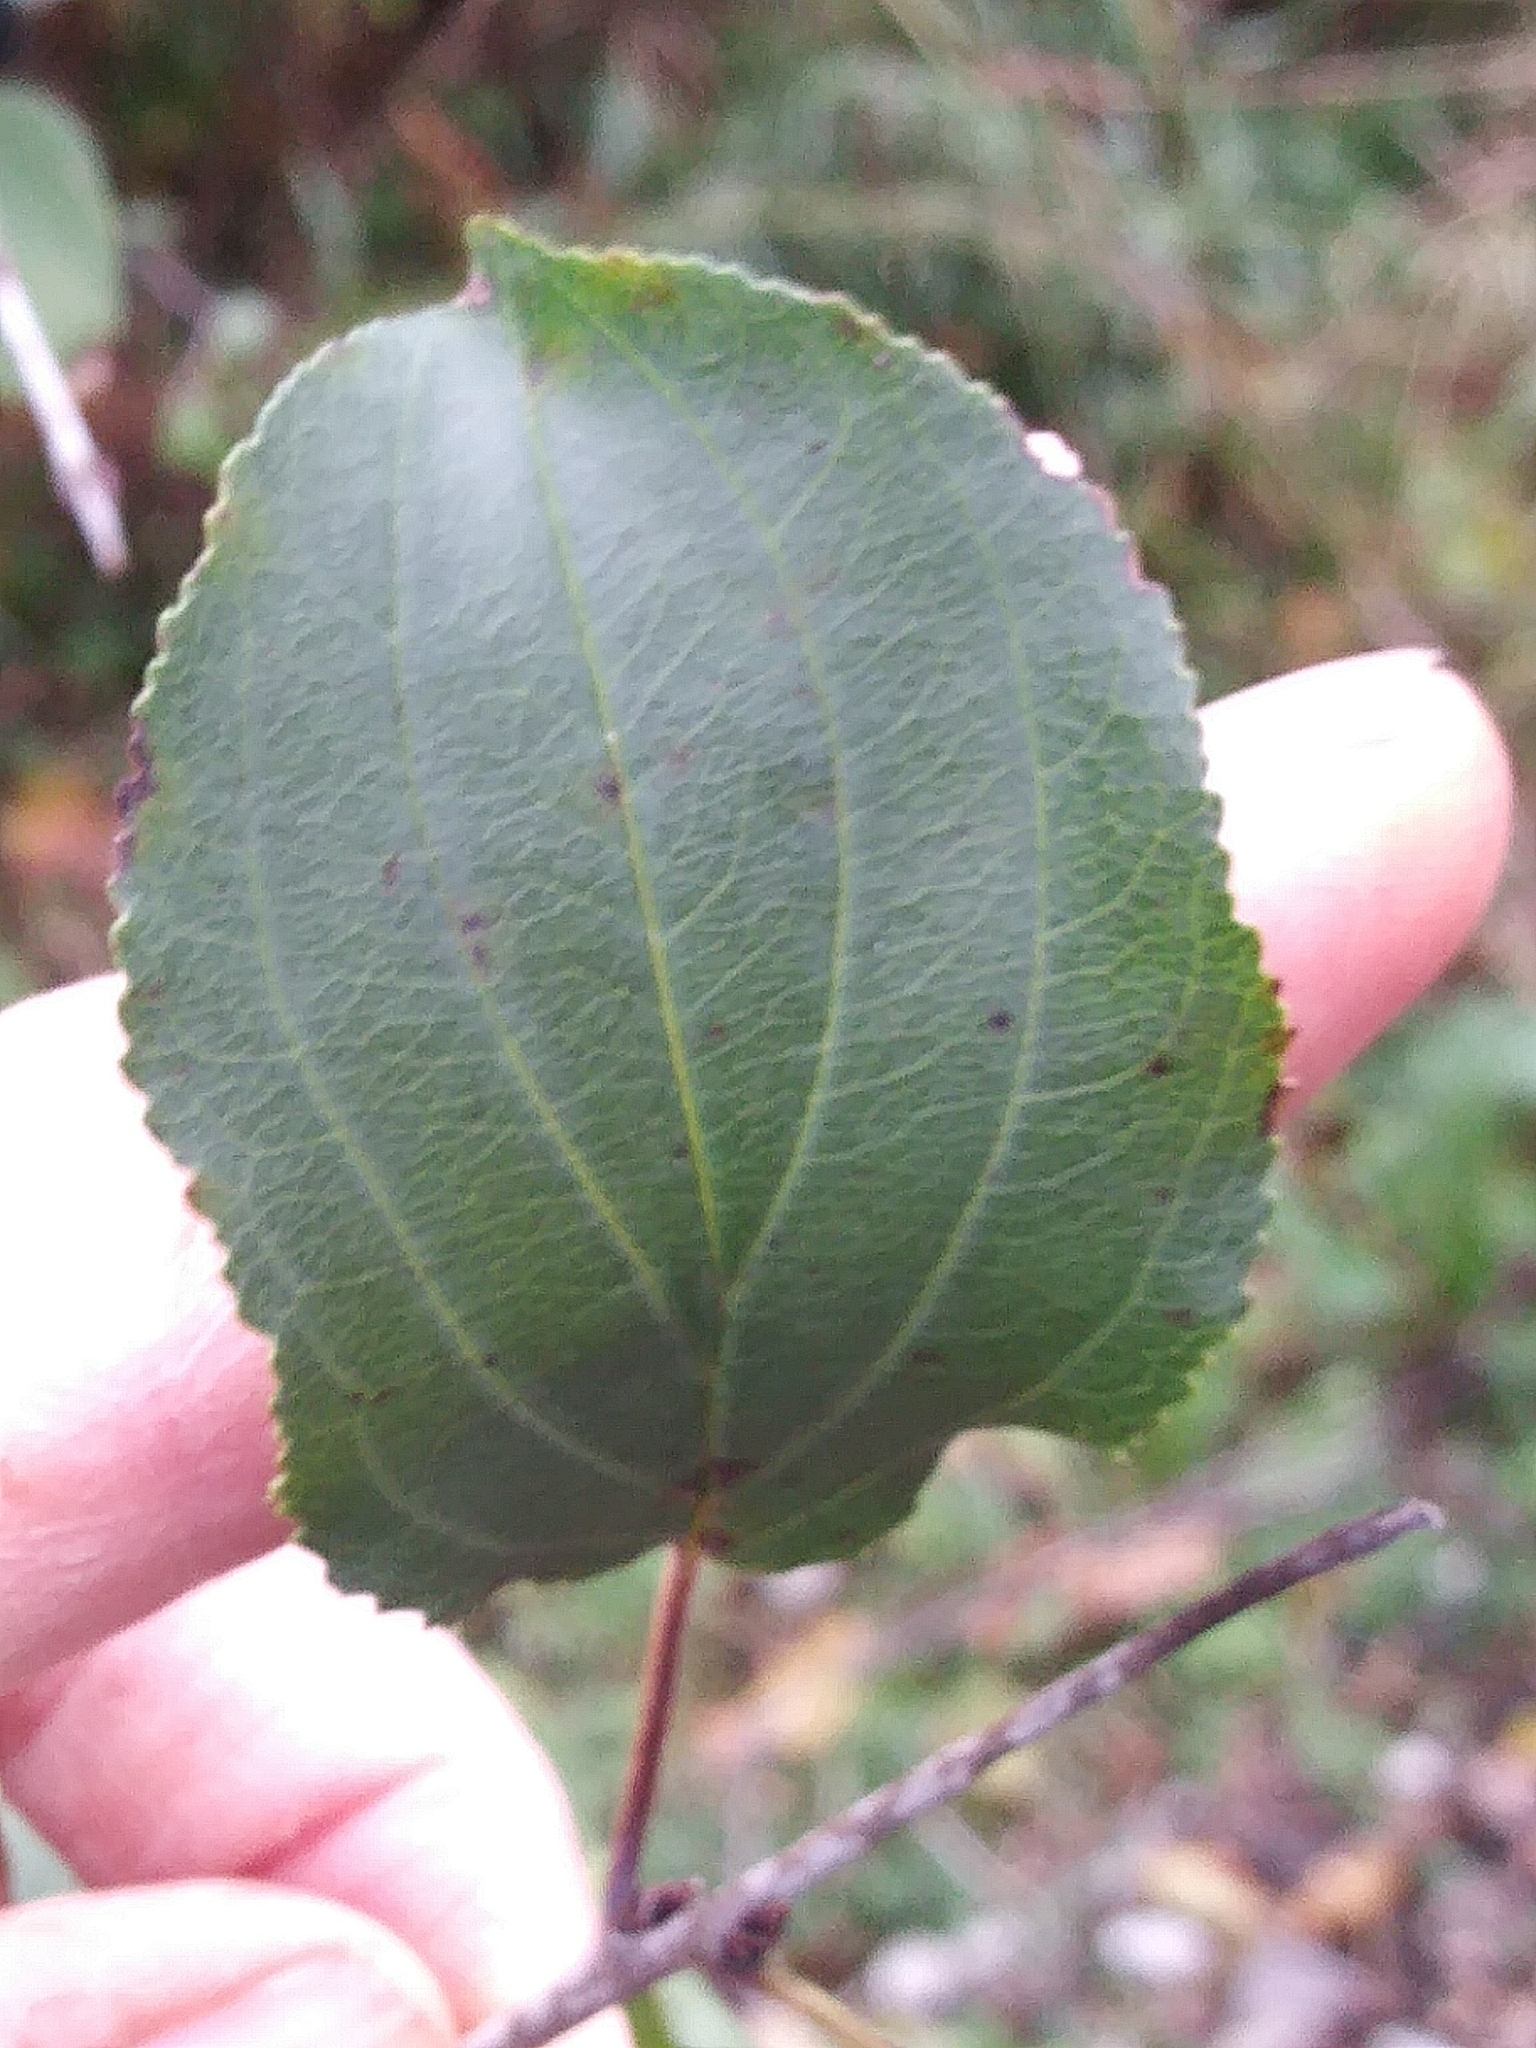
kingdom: Plantae
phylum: Tracheophyta
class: Magnoliopsida
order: Rosales
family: Rhamnaceae
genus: Rhamnus
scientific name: Rhamnus cathartica
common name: Common buckthorn
